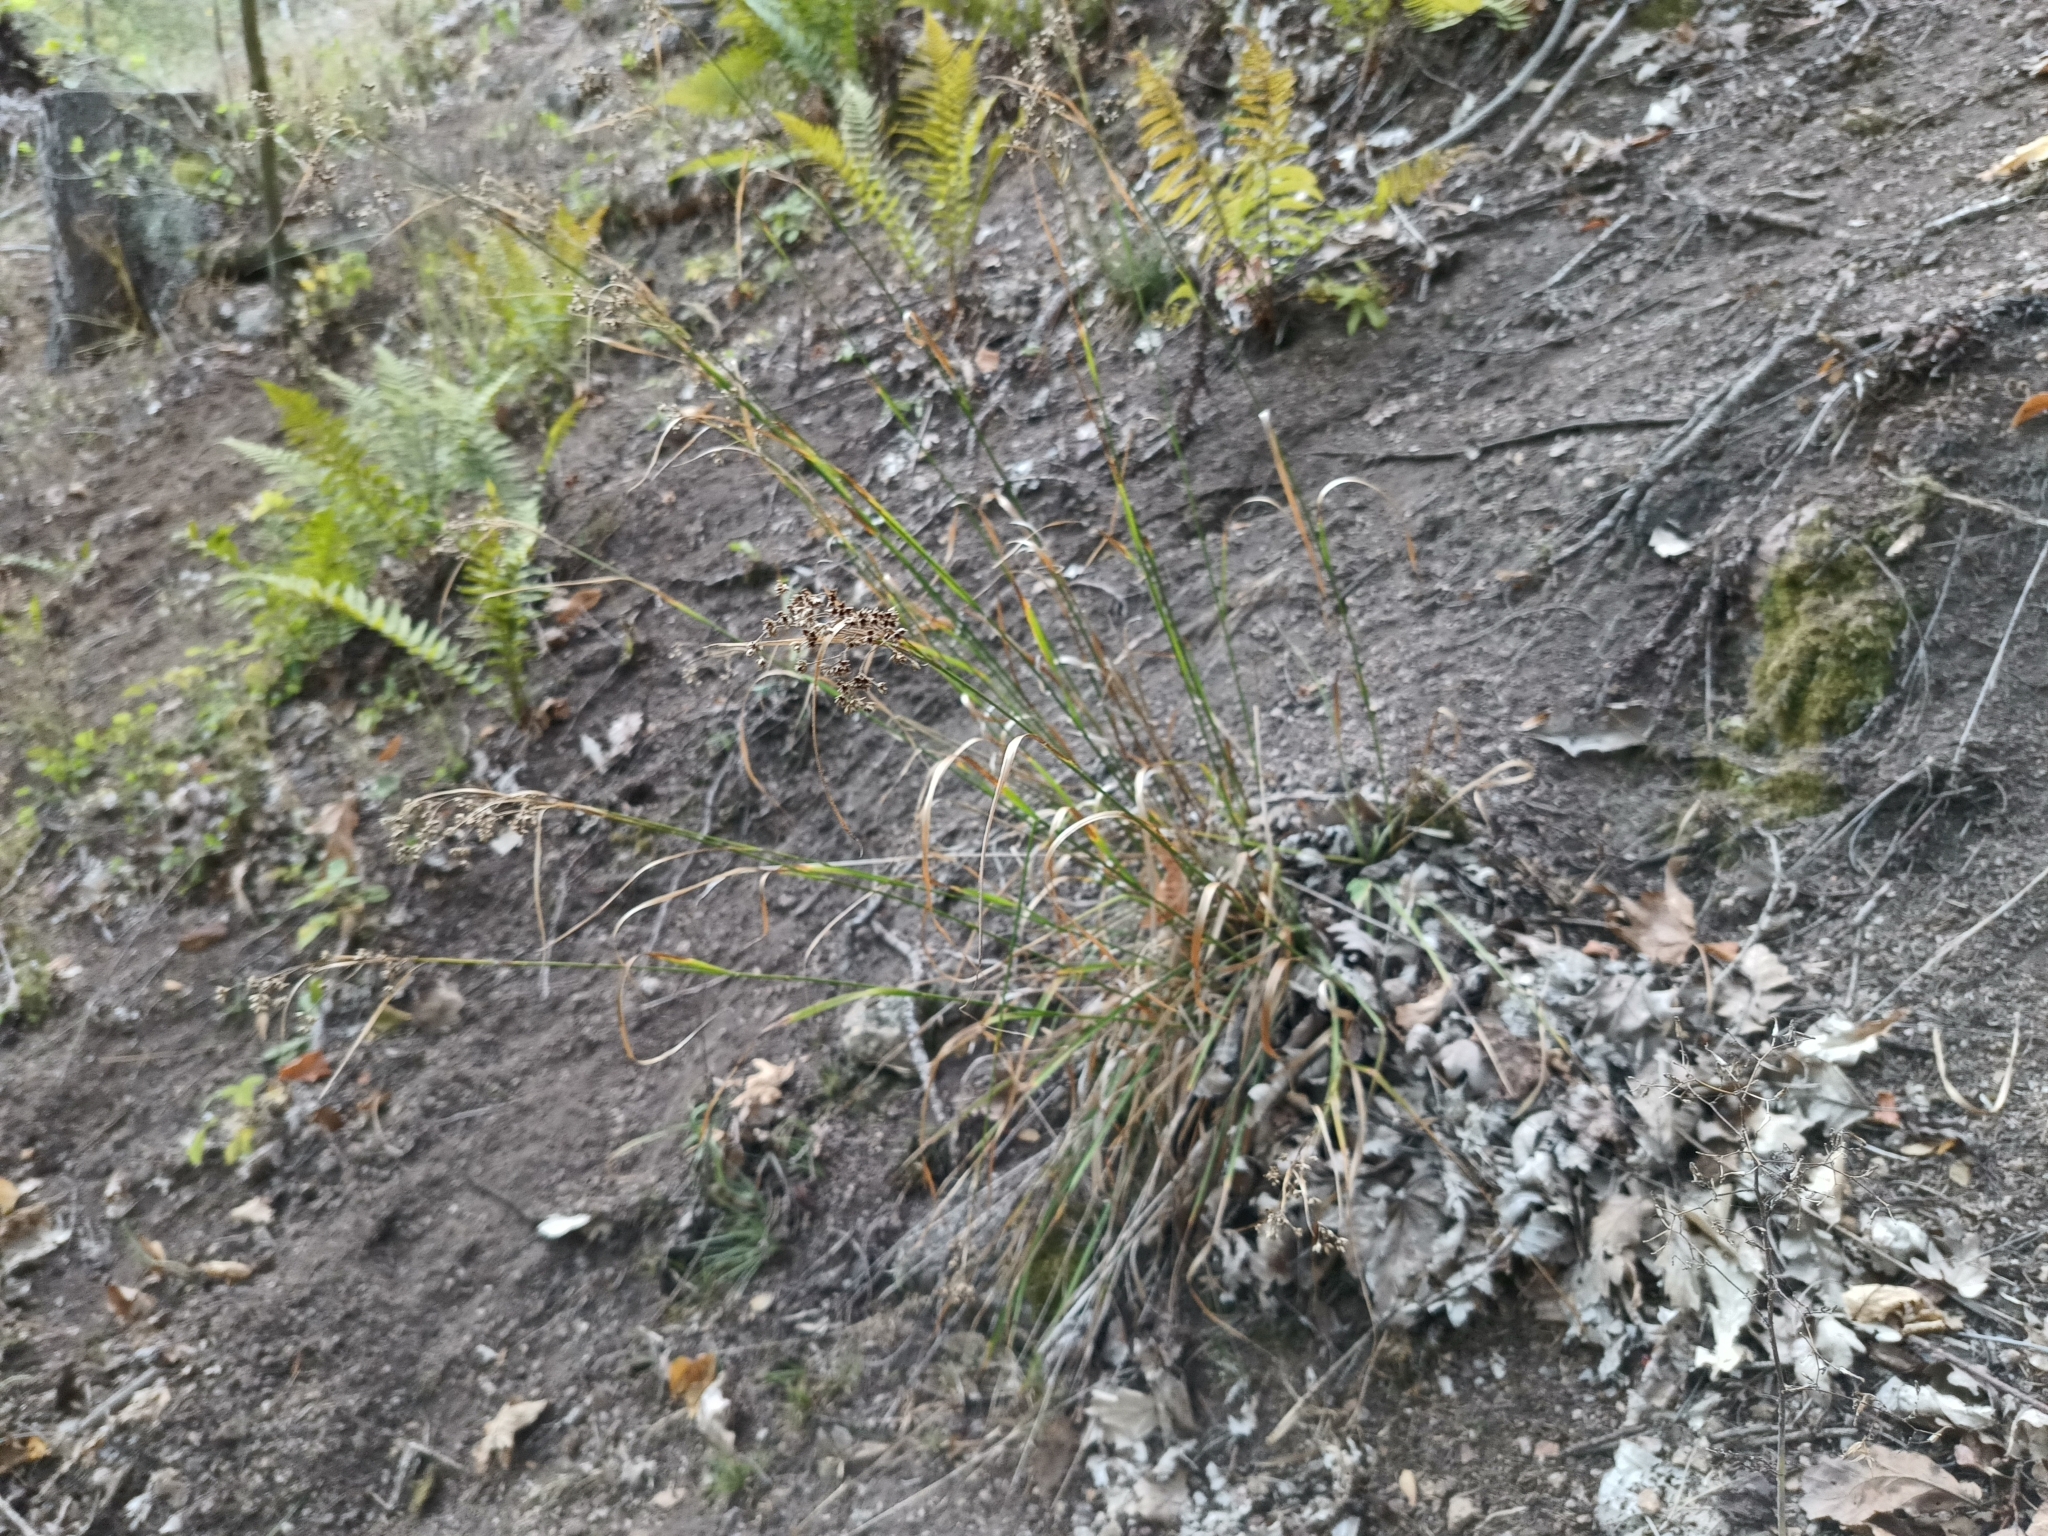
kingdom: Plantae
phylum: Tracheophyta
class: Liliopsida
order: Poales
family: Juncaceae
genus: Luzula
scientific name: Luzula luzuloides
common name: White wood-rush
